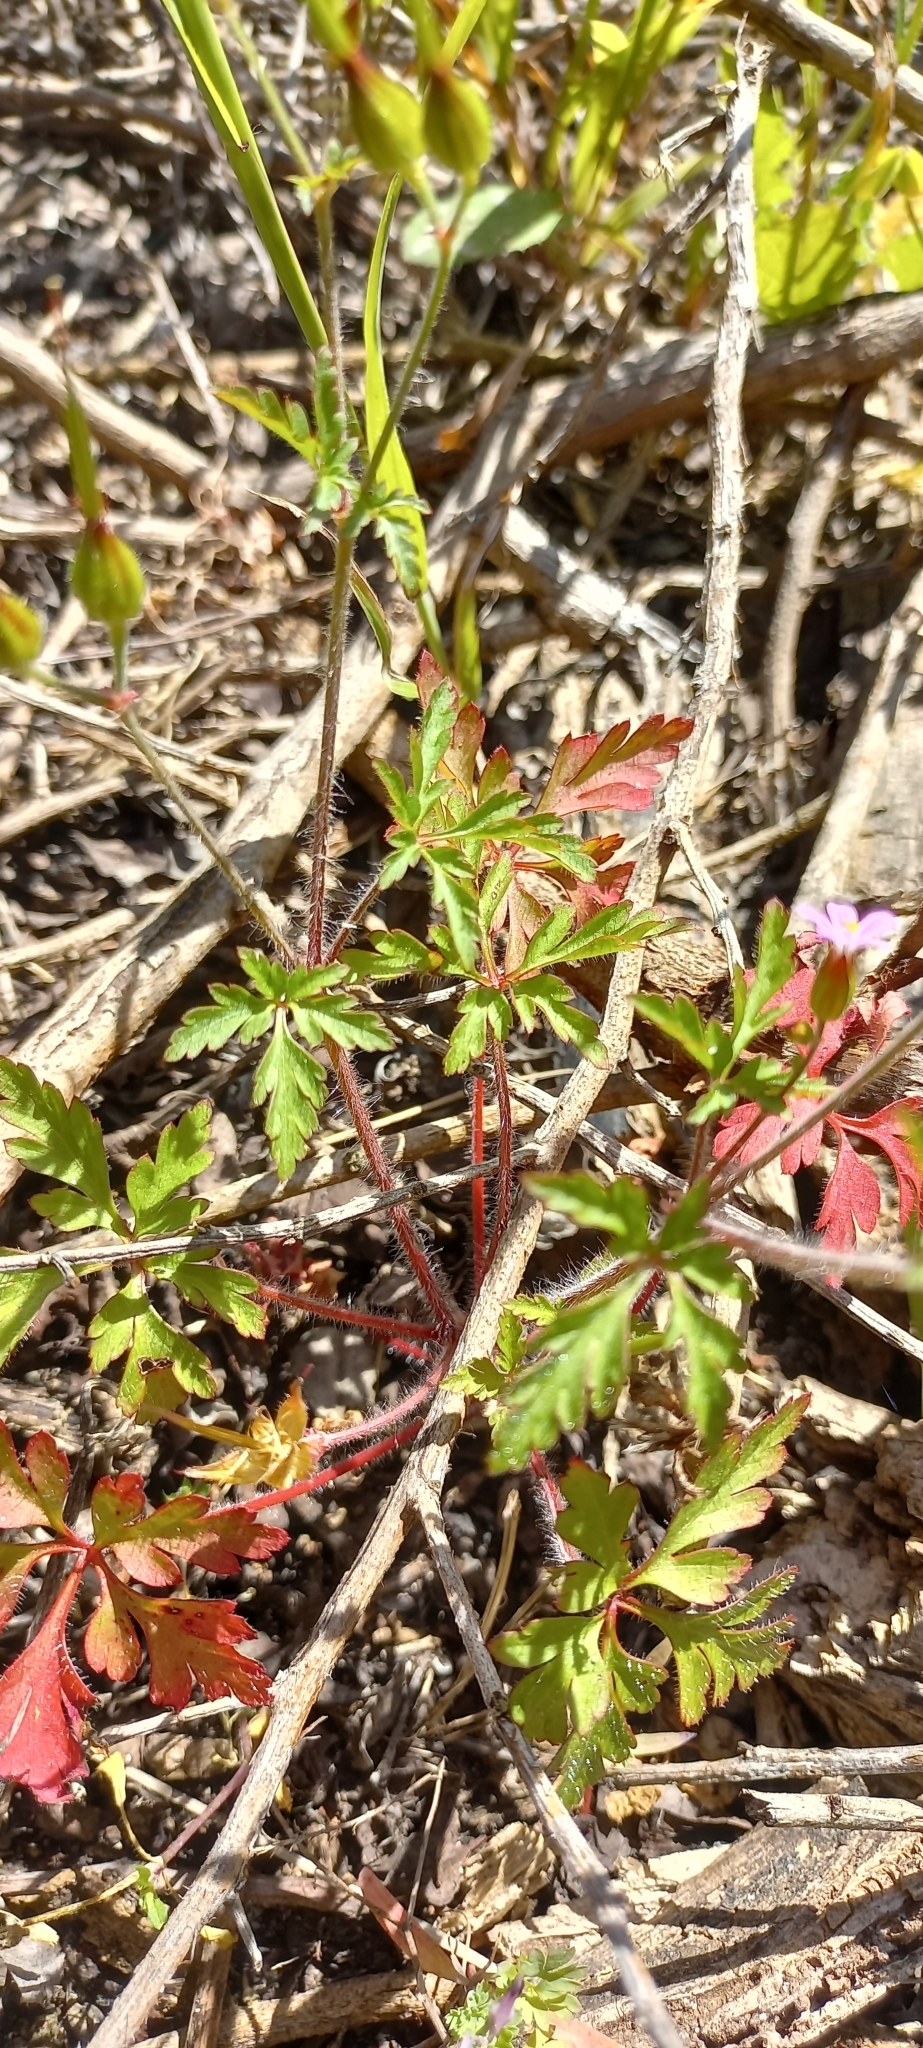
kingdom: Plantae
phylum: Tracheophyta
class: Magnoliopsida
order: Geraniales
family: Geraniaceae
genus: Geranium
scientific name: Geranium purpureum
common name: Little-robin
